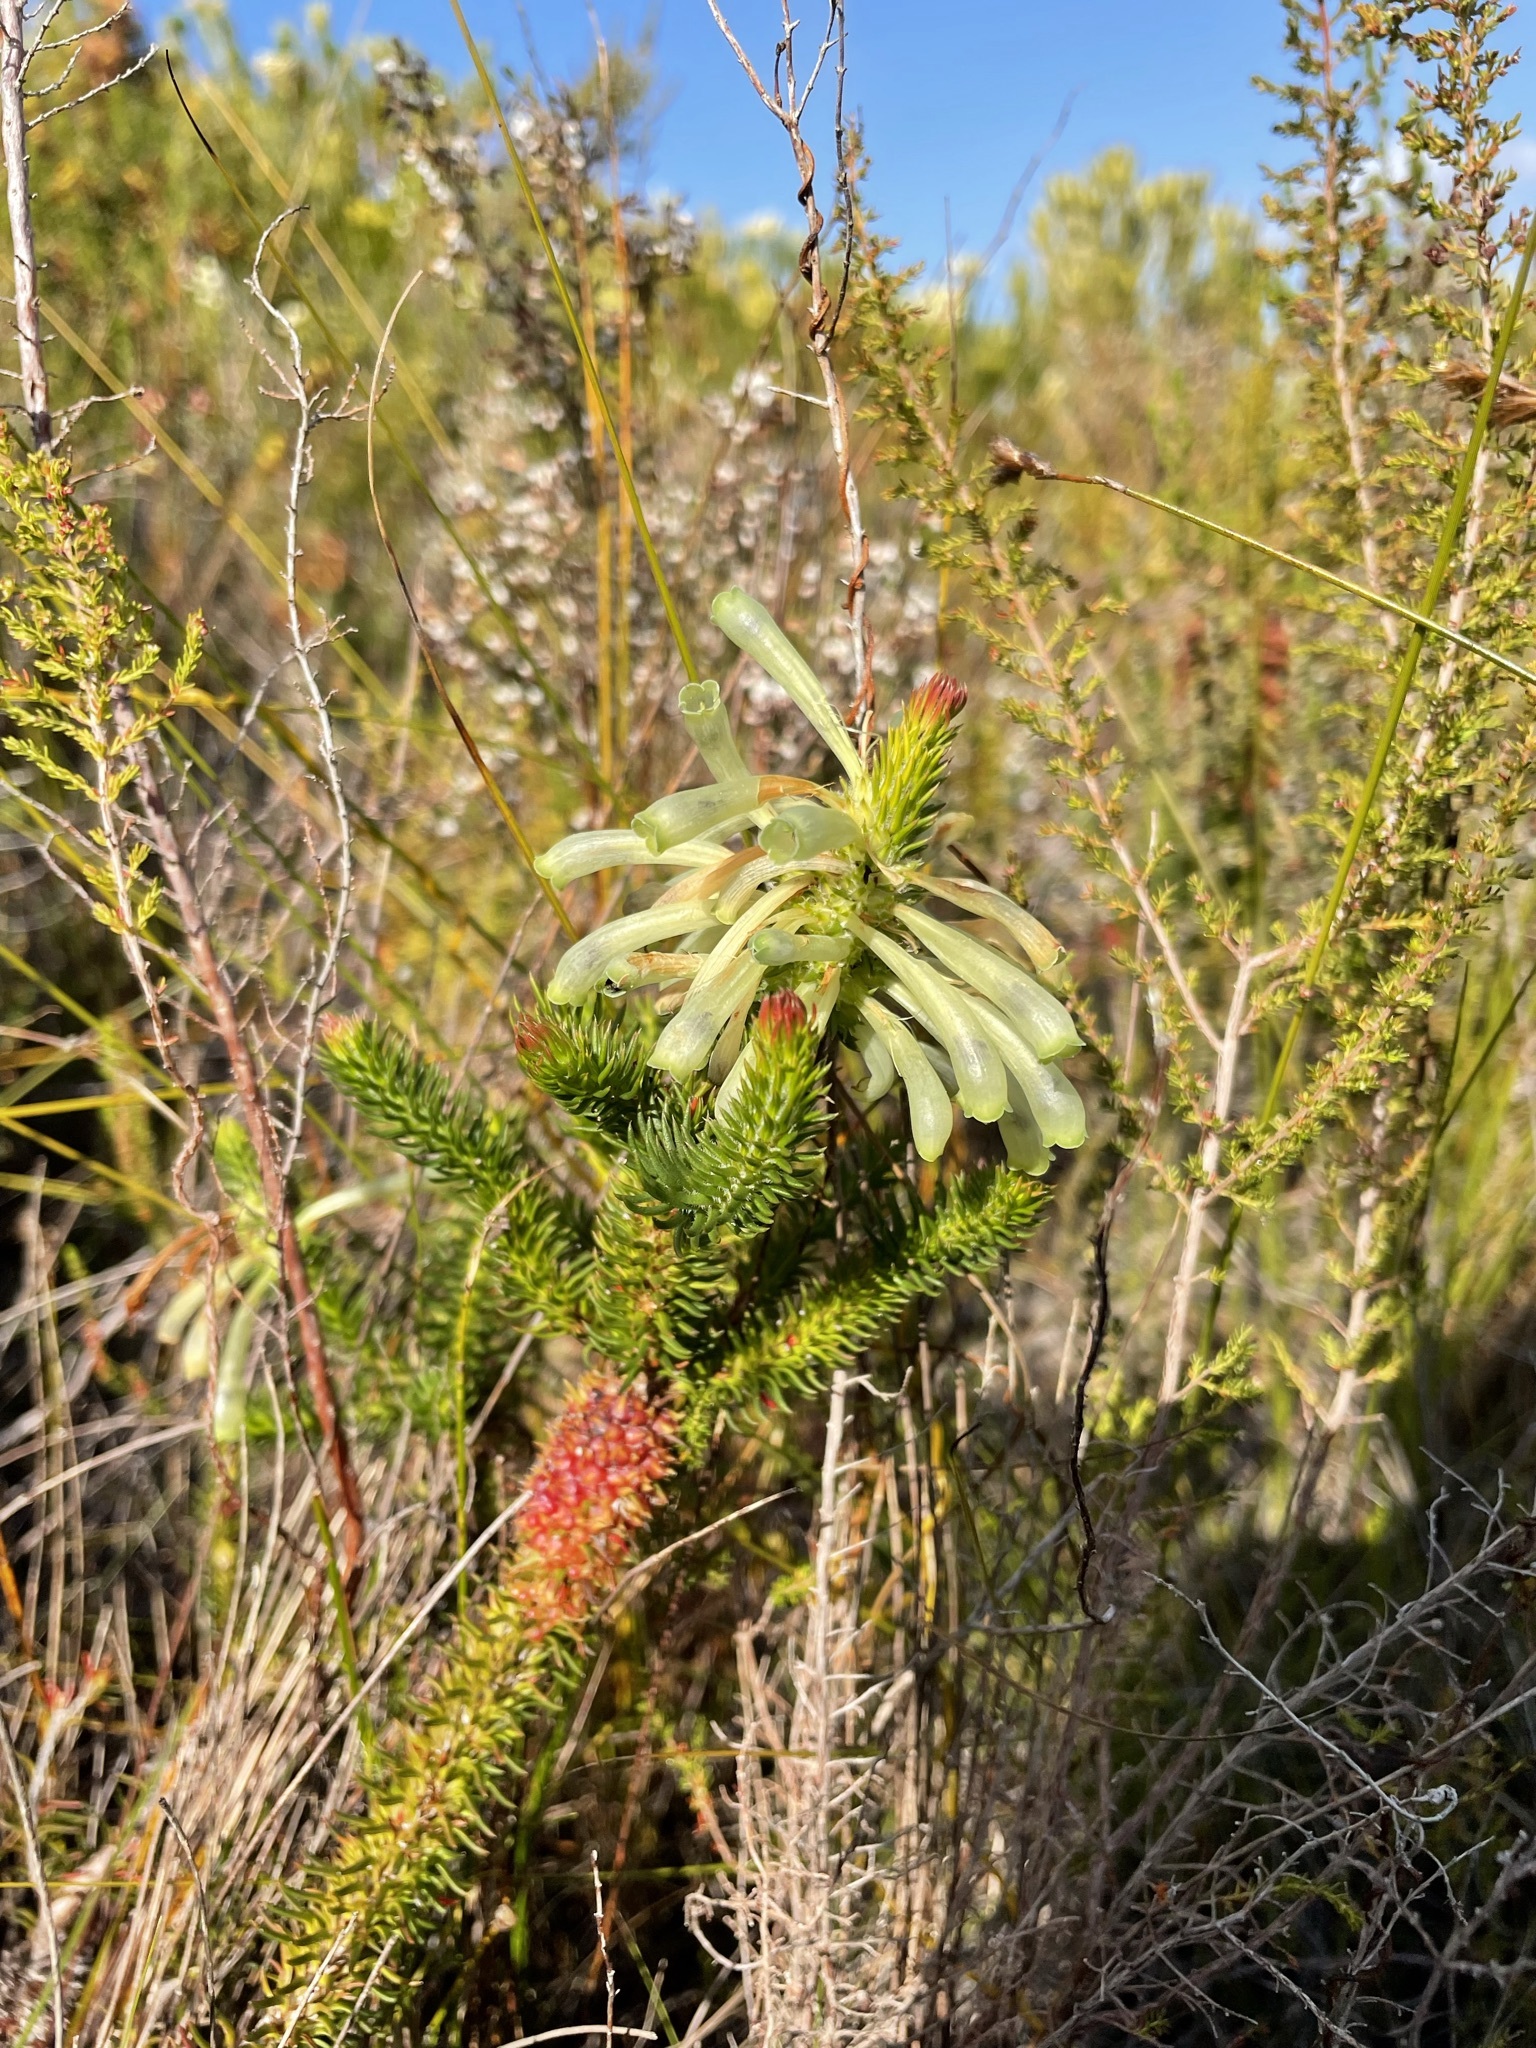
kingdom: Plantae
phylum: Tracheophyta
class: Magnoliopsida
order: Ericales
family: Ericaceae
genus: Erica
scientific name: Erica sessiliflora
